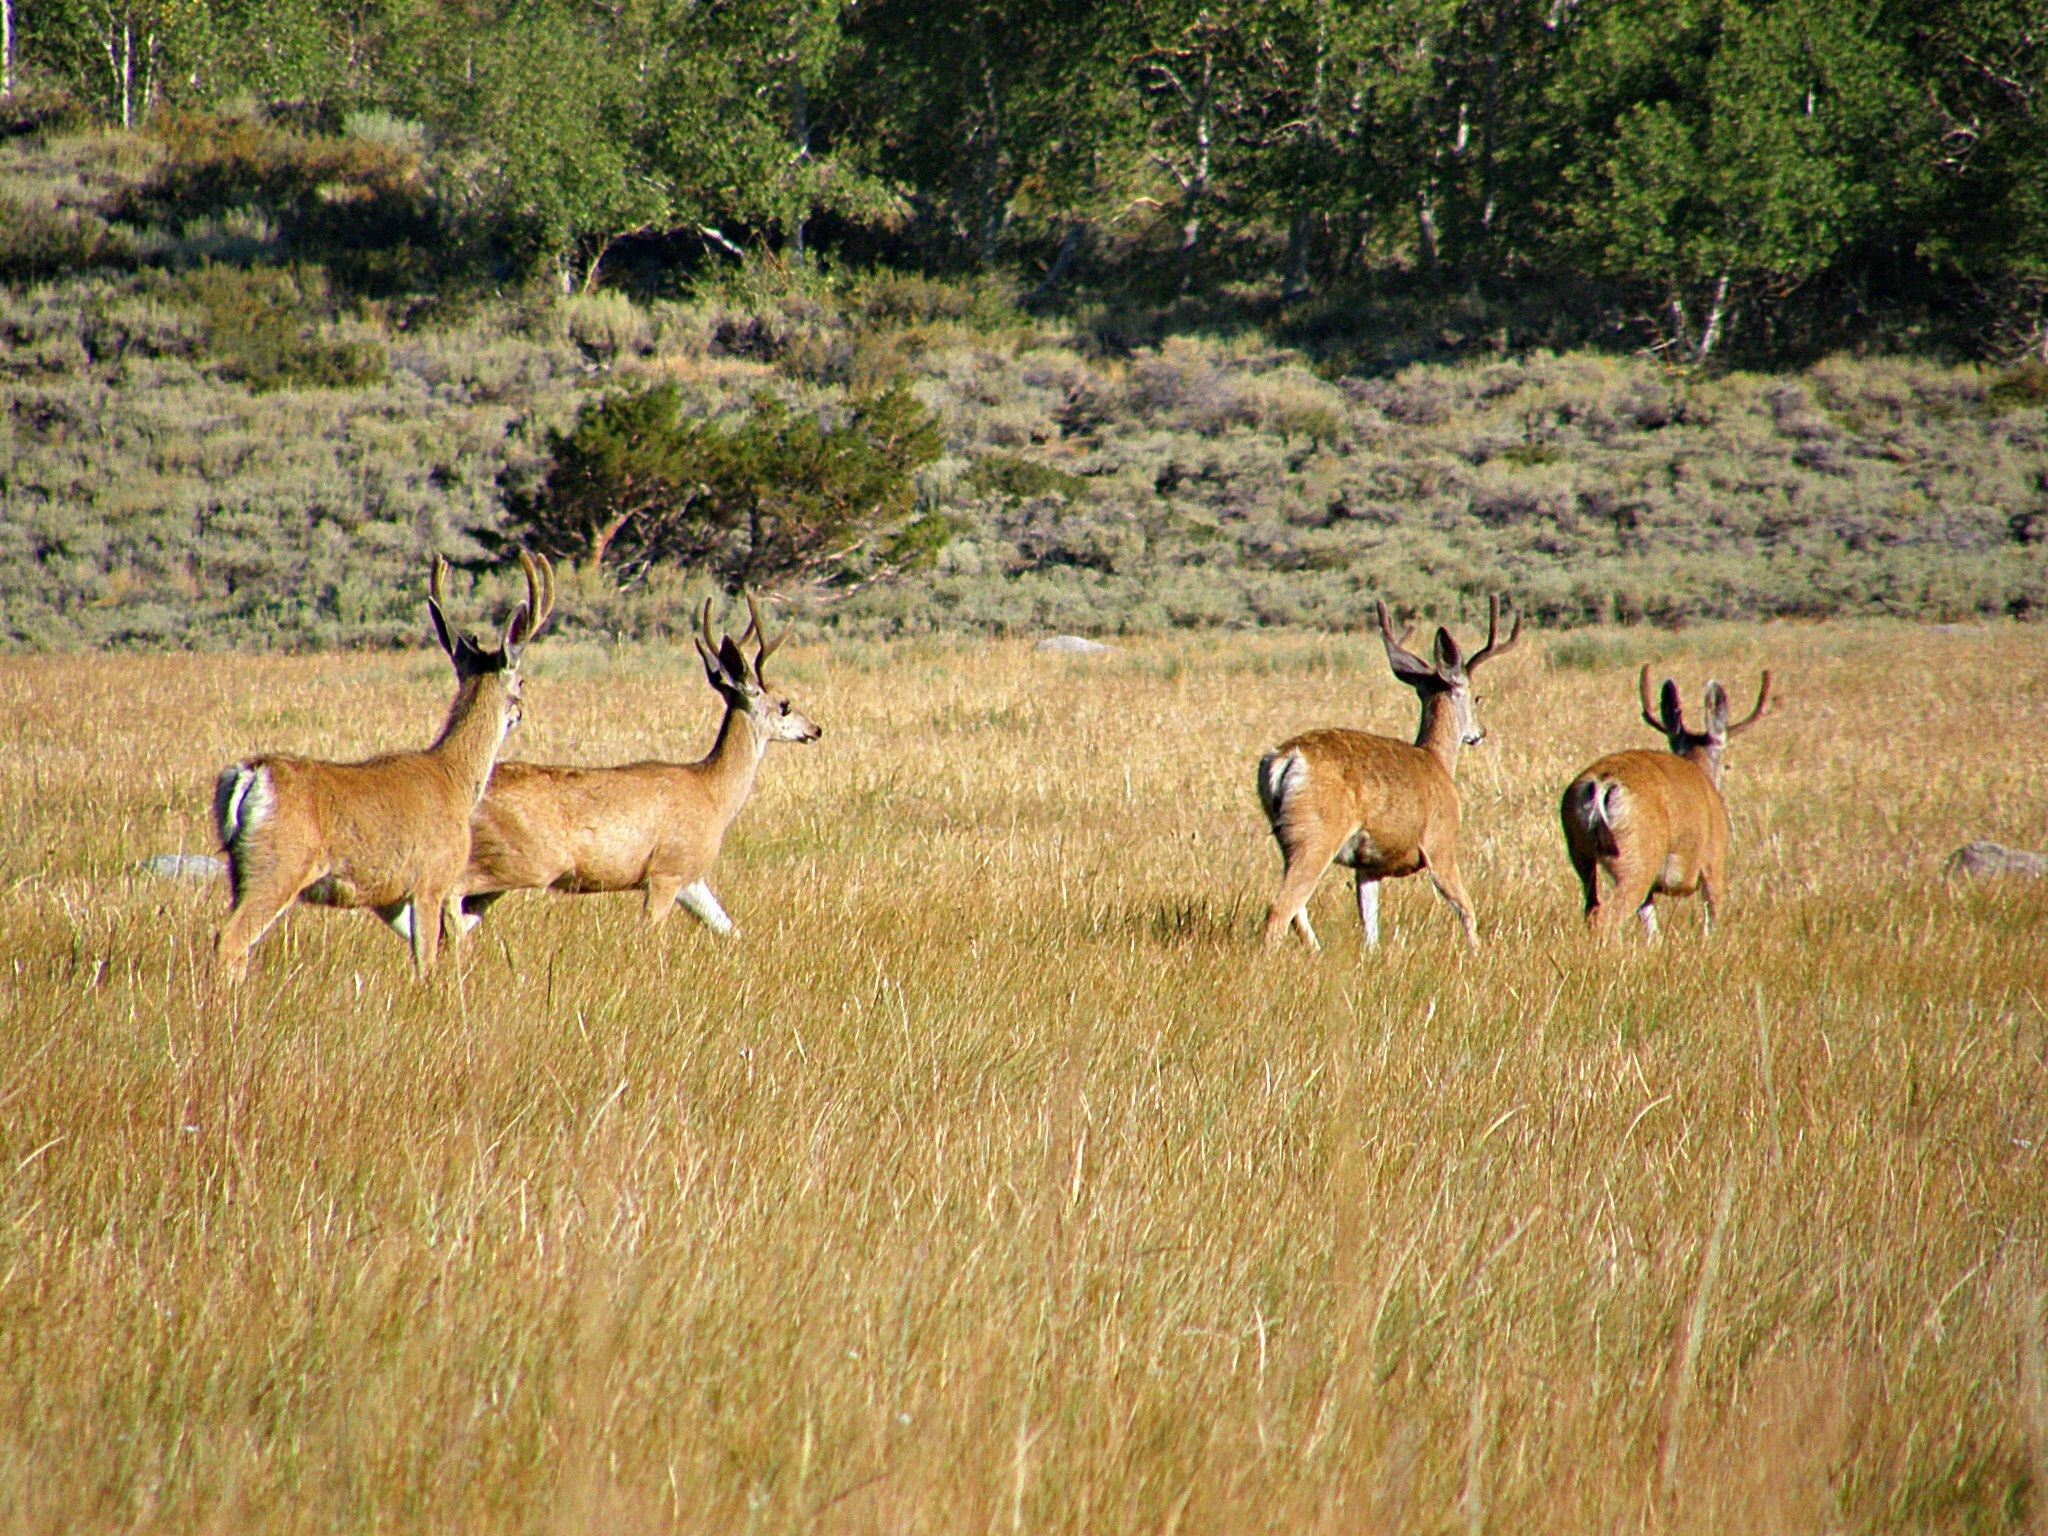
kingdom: Animalia
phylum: Chordata
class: Mammalia
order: Artiodactyla
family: Cervidae
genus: Odocoileus
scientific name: Odocoileus hemionus
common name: Mule deer
